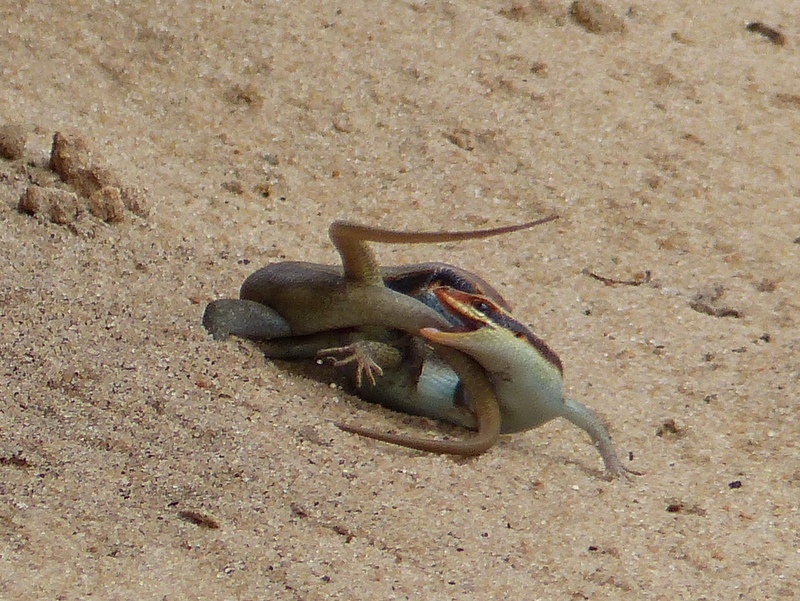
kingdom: Animalia
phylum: Chordata
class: Squamata
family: Scincidae
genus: Trachylepis
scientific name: Trachylepis wahlbergii
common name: Wahlberg’s striped skink
